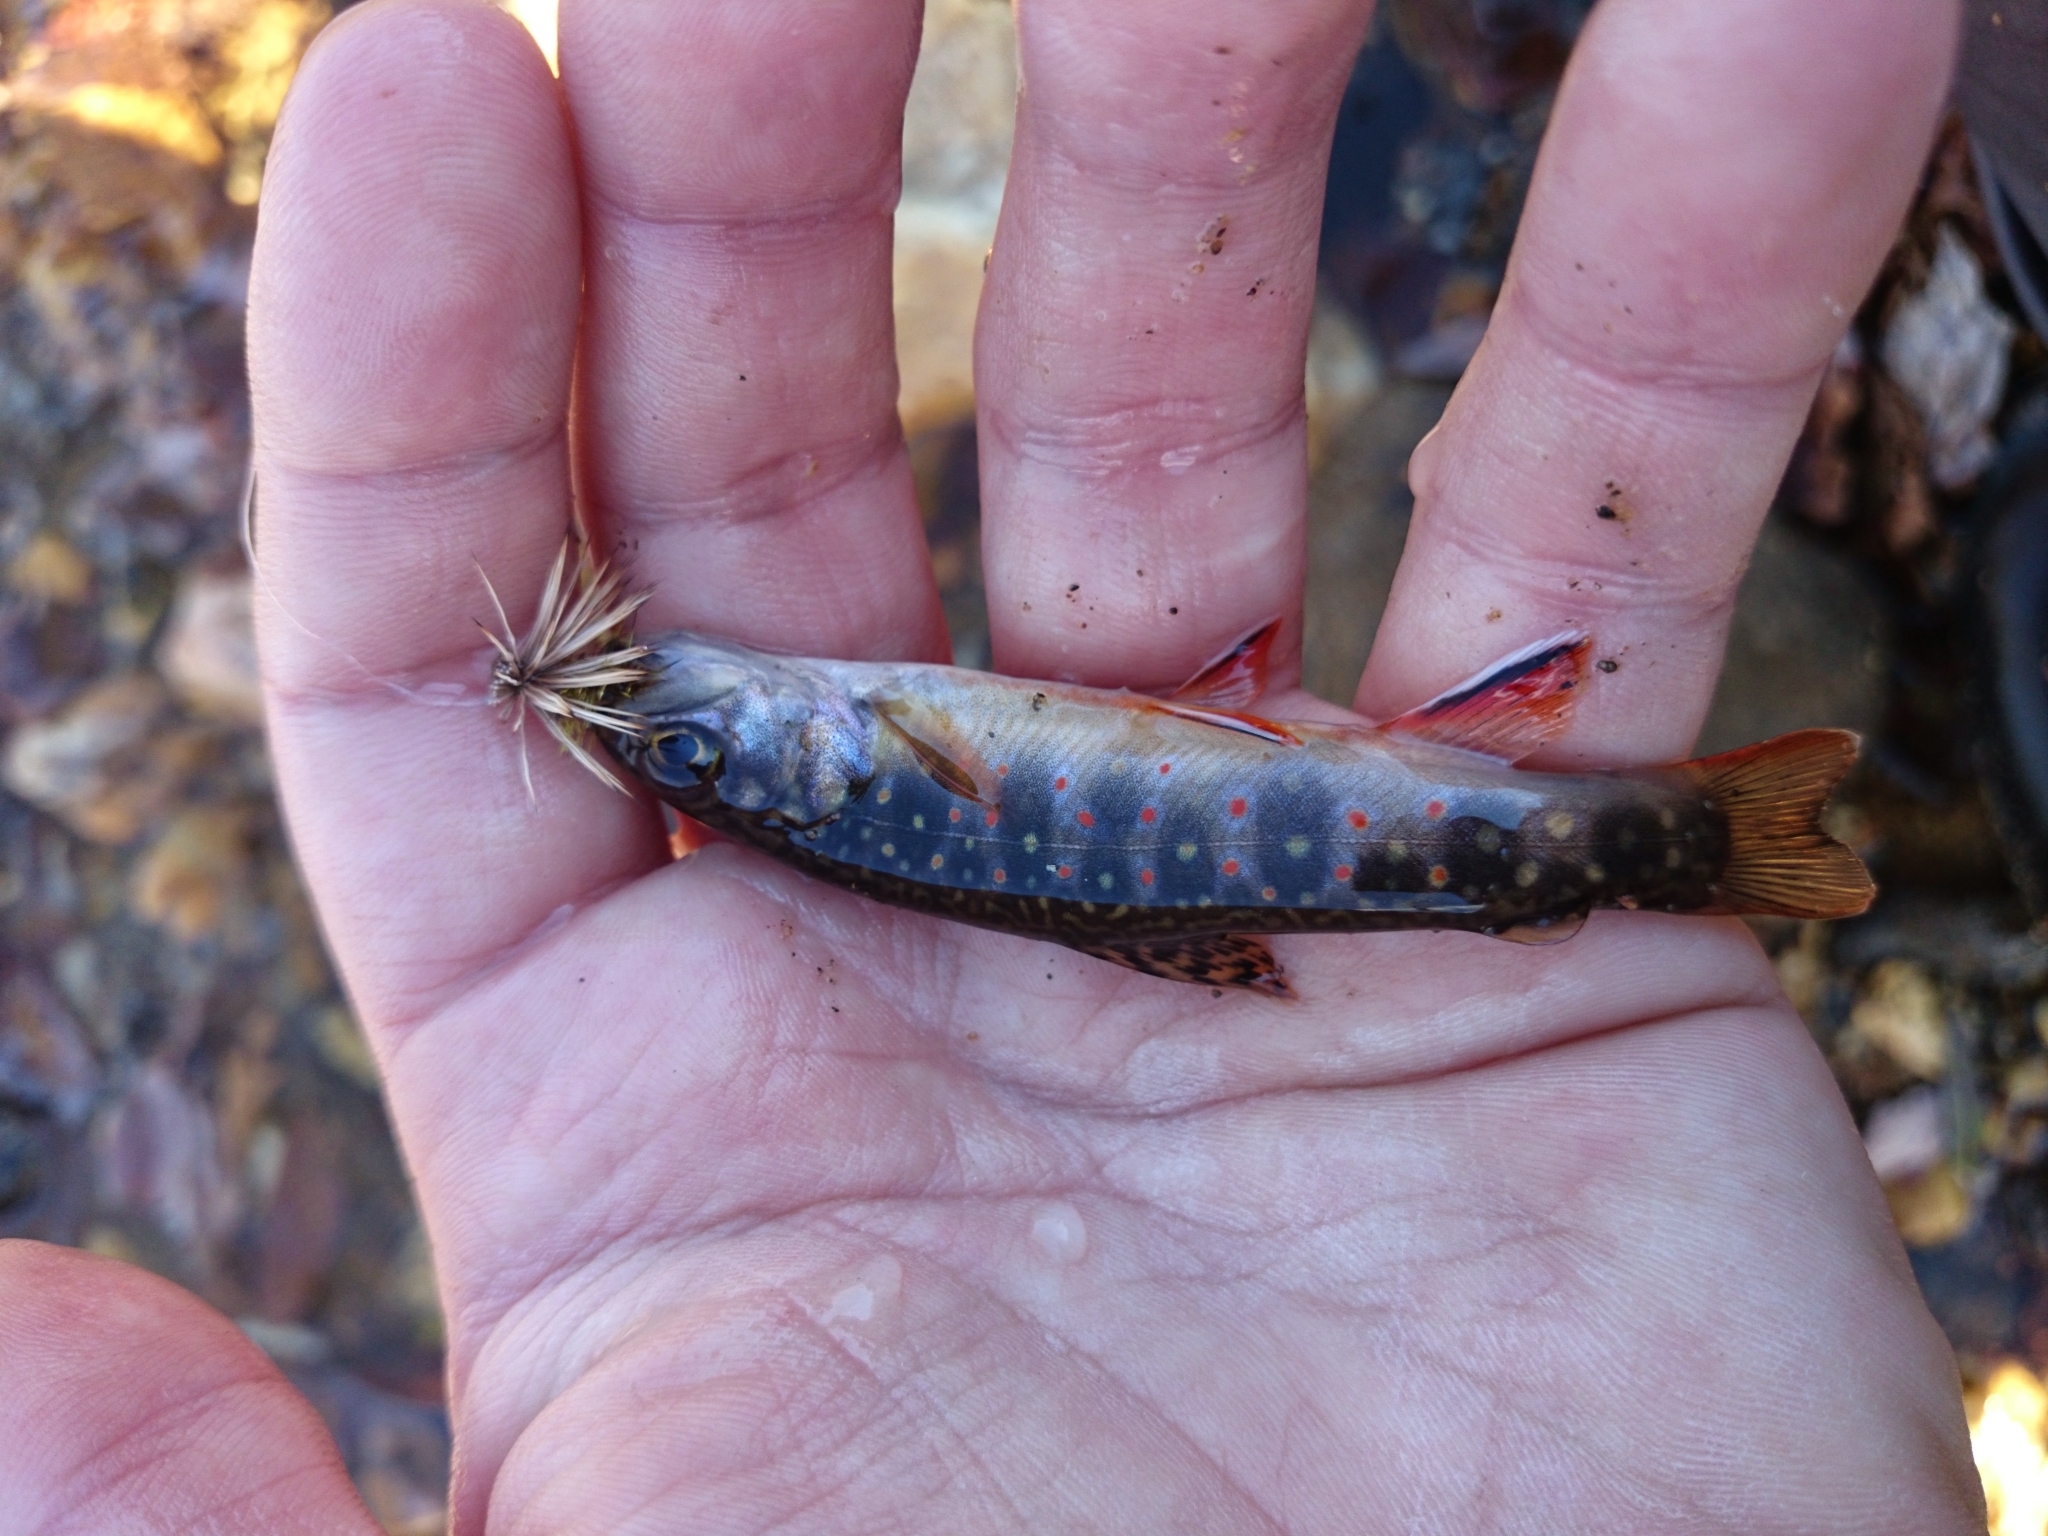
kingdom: Animalia
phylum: Chordata
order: Salmoniformes
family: Salmonidae
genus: Salvelinus
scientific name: Salvelinus fontinalis
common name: Brook trout
